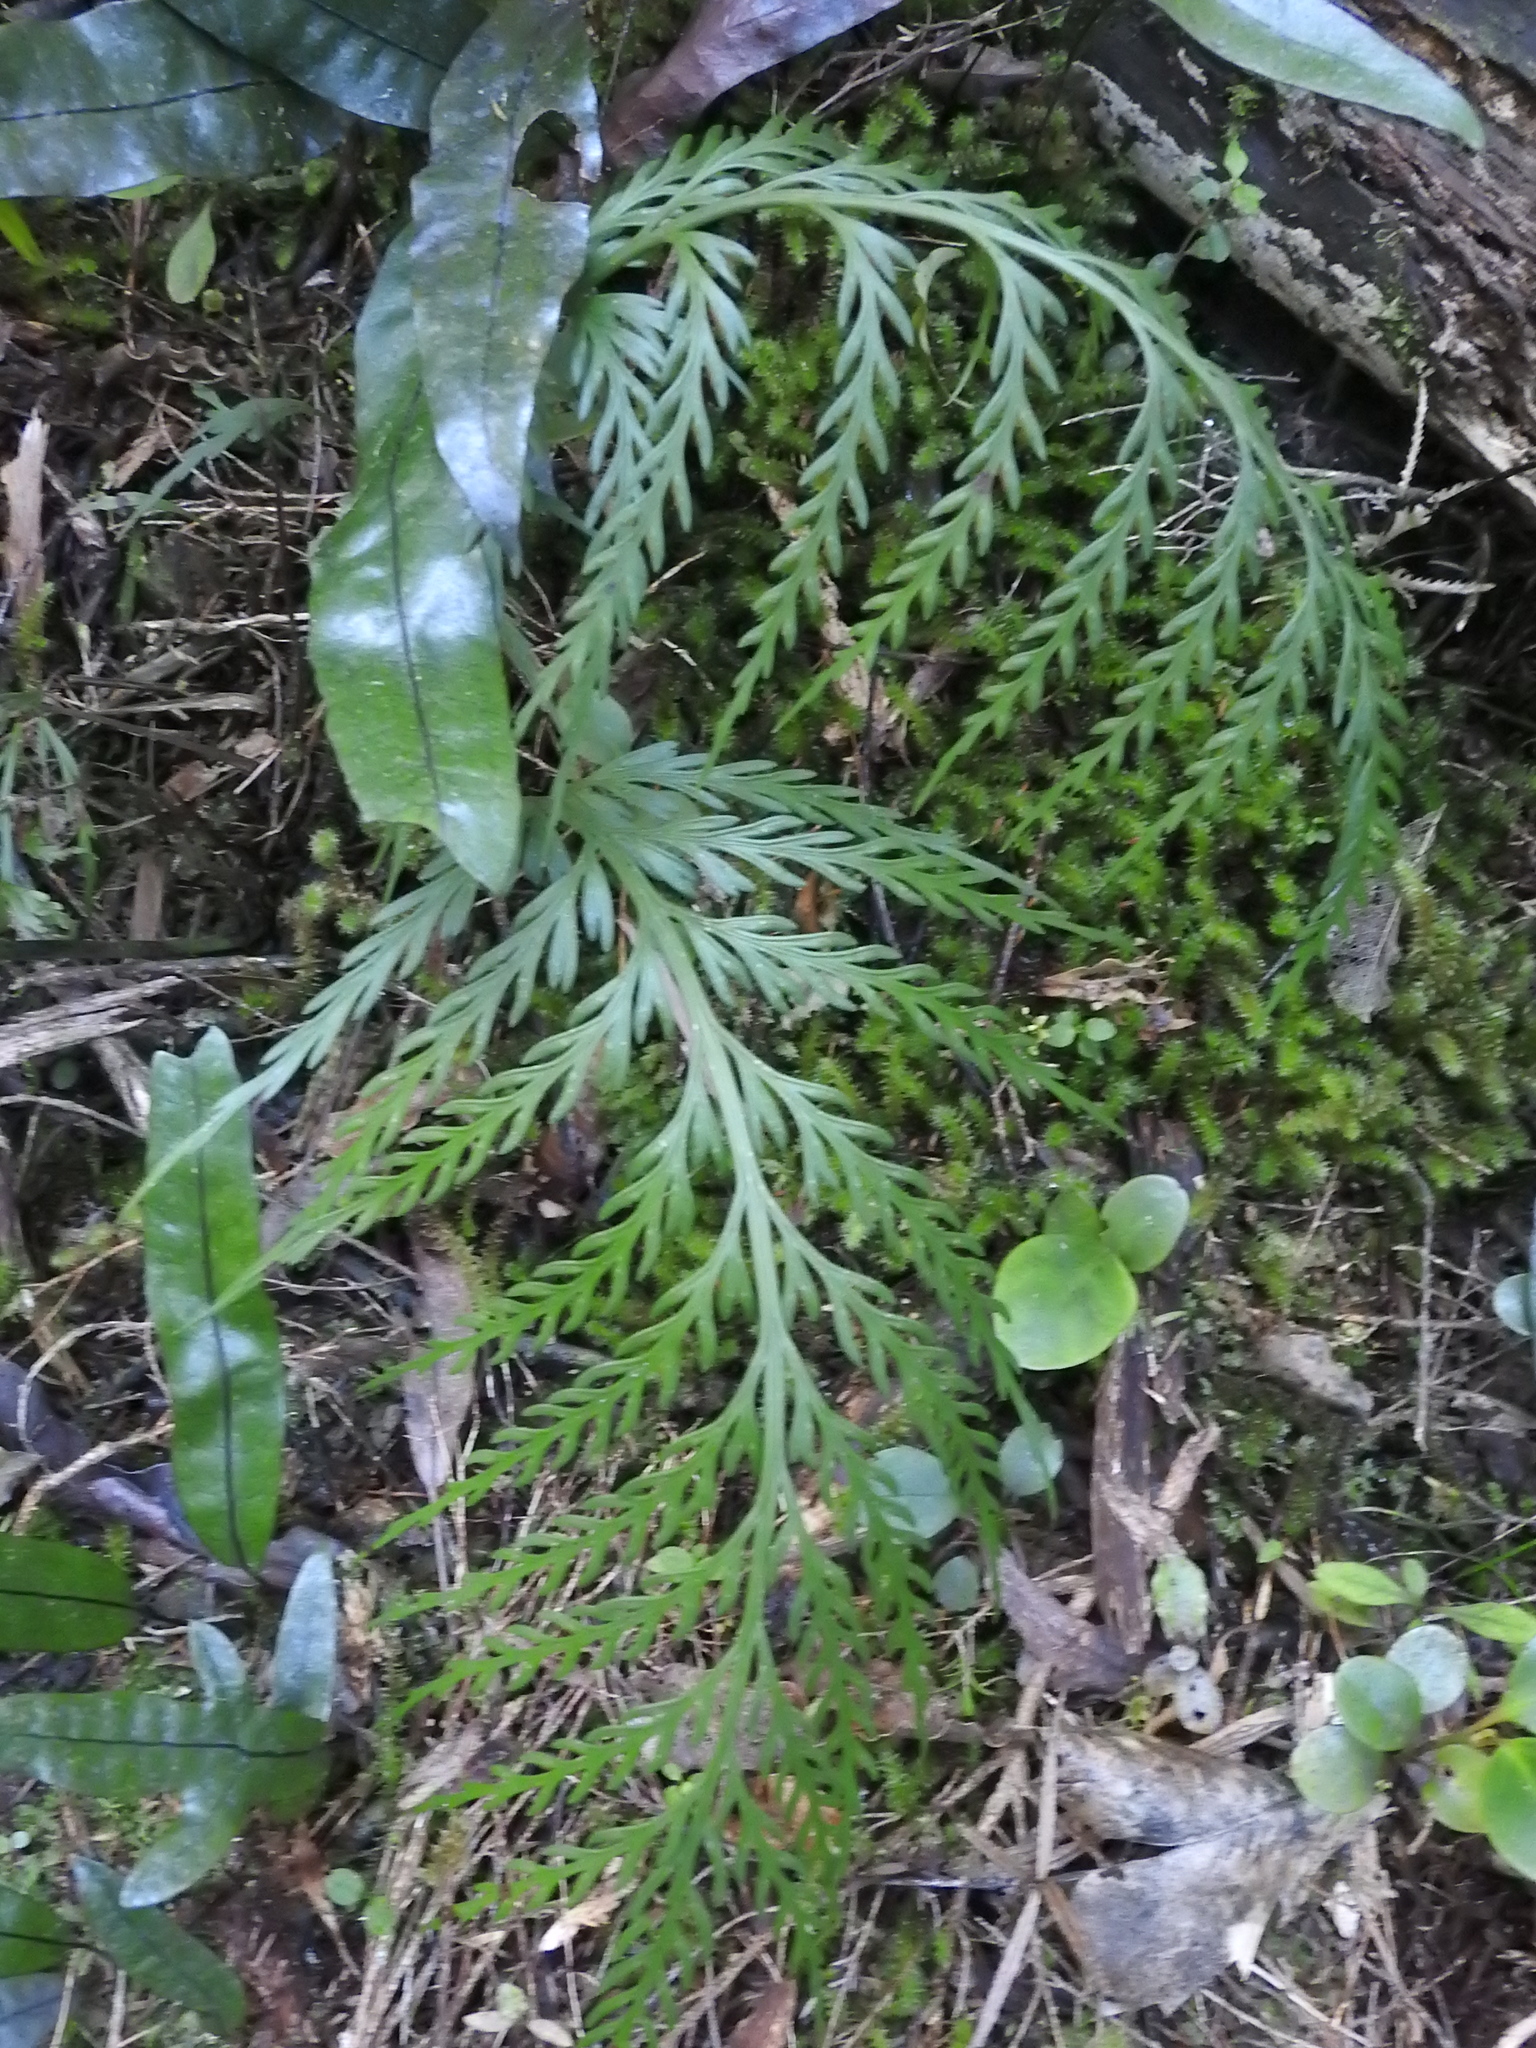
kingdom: Plantae
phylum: Tracheophyta
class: Polypodiopsida
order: Polypodiales
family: Aspleniaceae
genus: Asplenium
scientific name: Asplenium flaccidum
